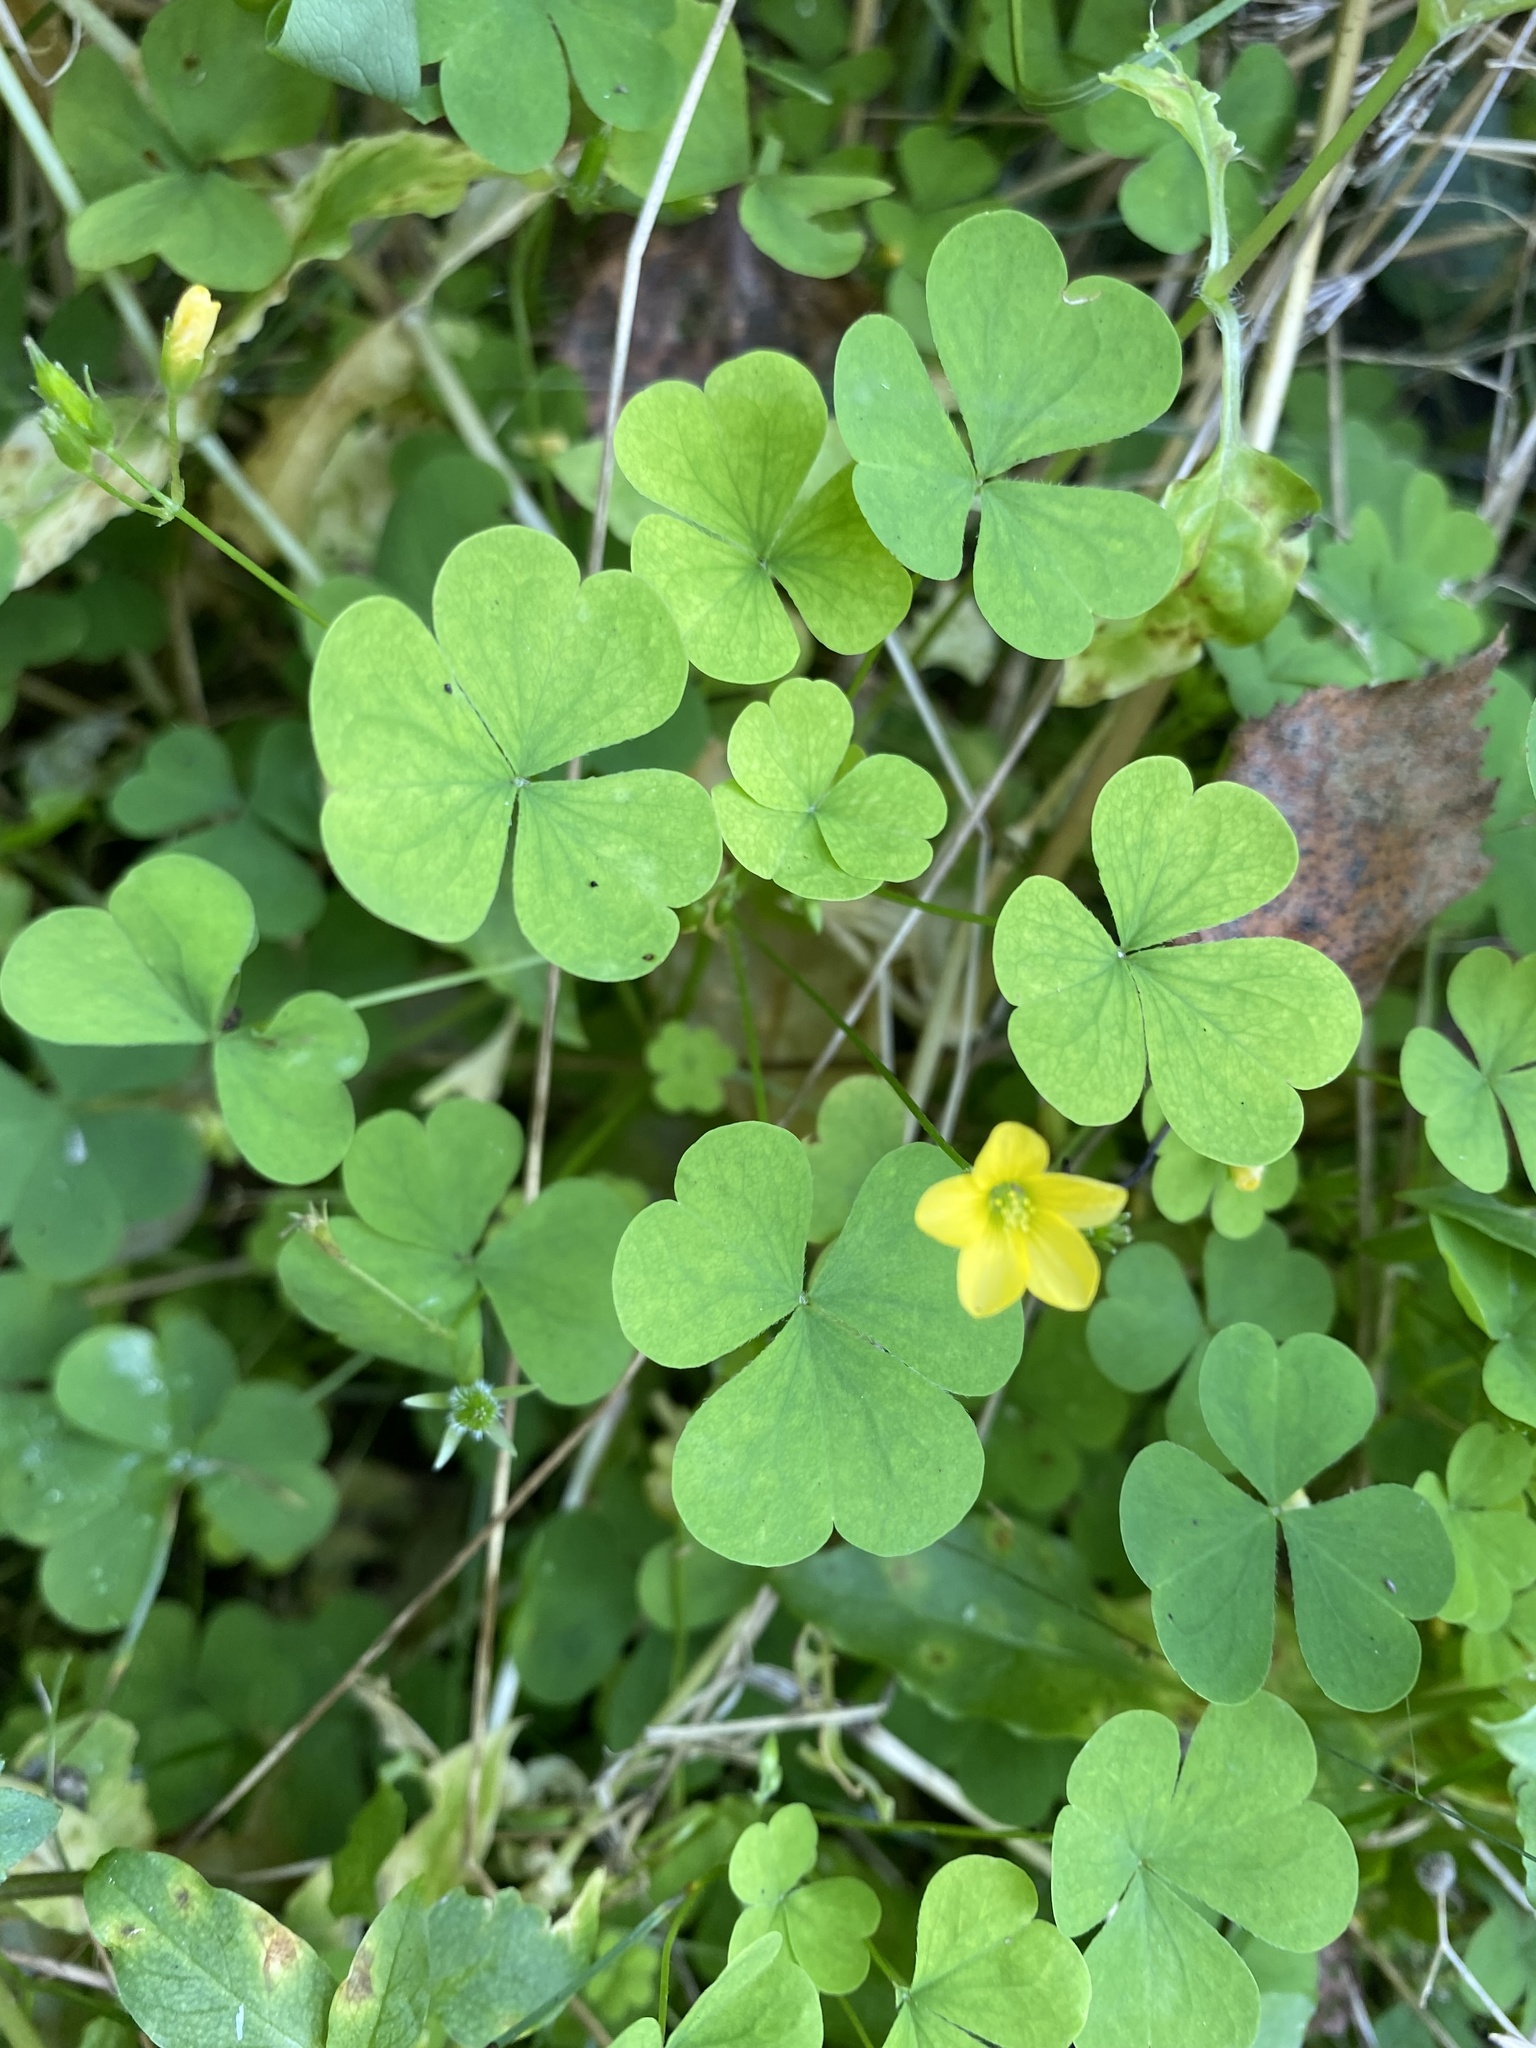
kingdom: Plantae
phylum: Tracheophyta
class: Magnoliopsida
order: Oxalidales
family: Oxalidaceae
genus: Oxalis
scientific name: Oxalis stricta
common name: Upright yellow-sorrel
